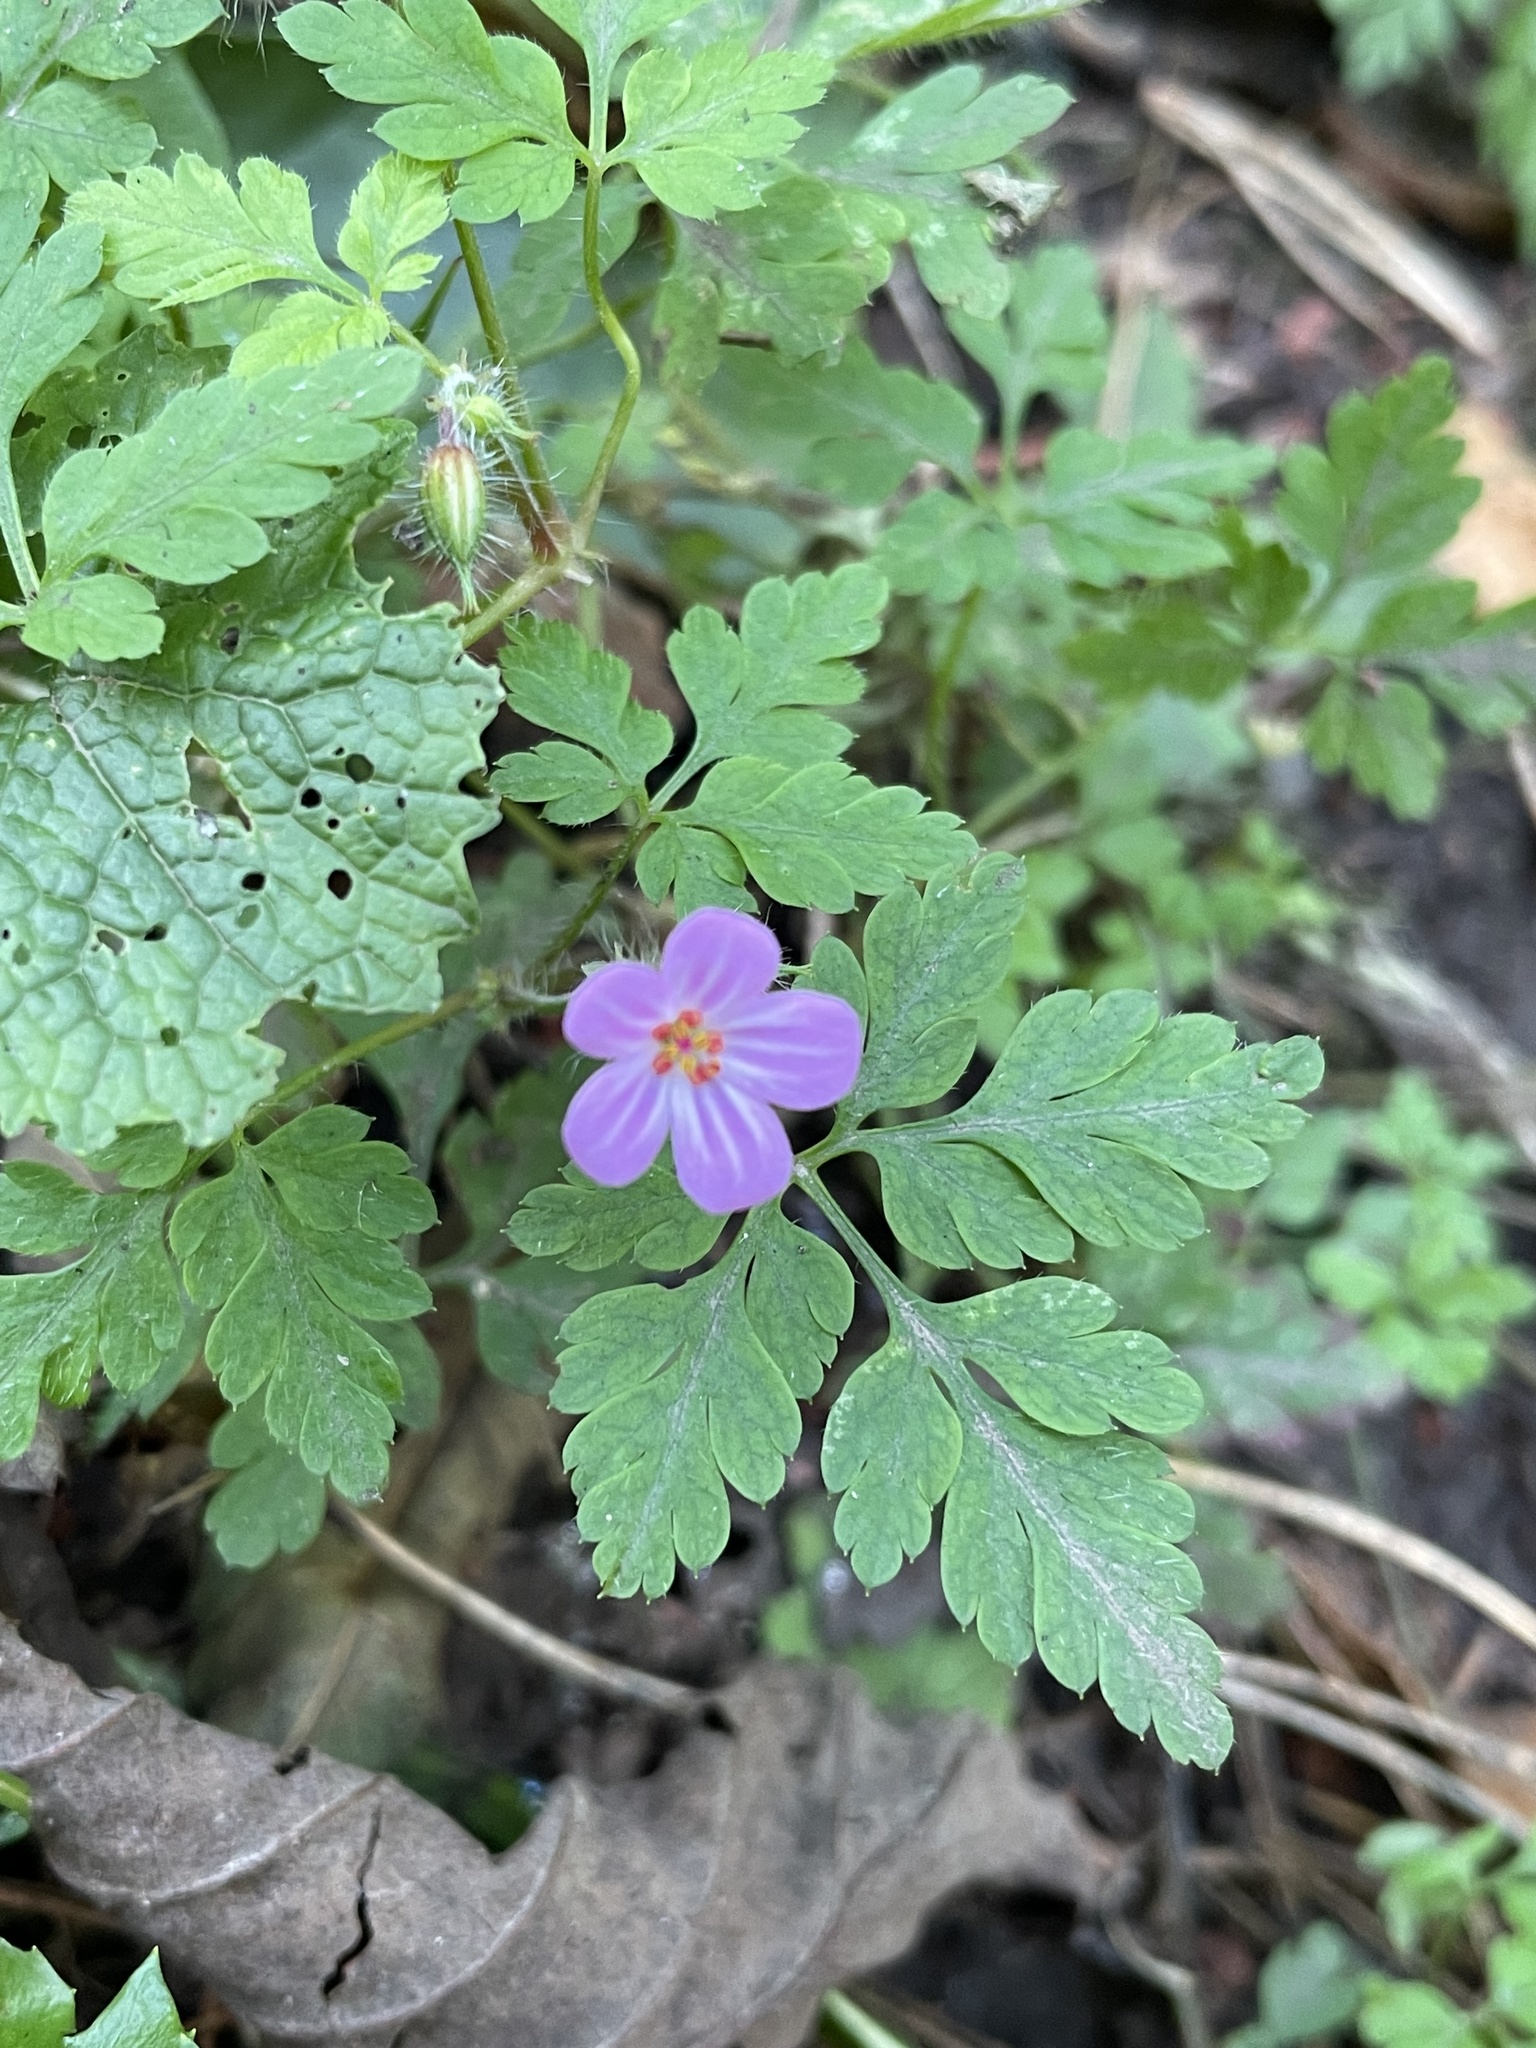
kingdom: Plantae
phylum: Tracheophyta
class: Magnoliopsida
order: Geraniales
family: Geraniaceae
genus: Geranium
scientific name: Geranium robertianum
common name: Herb-robert
